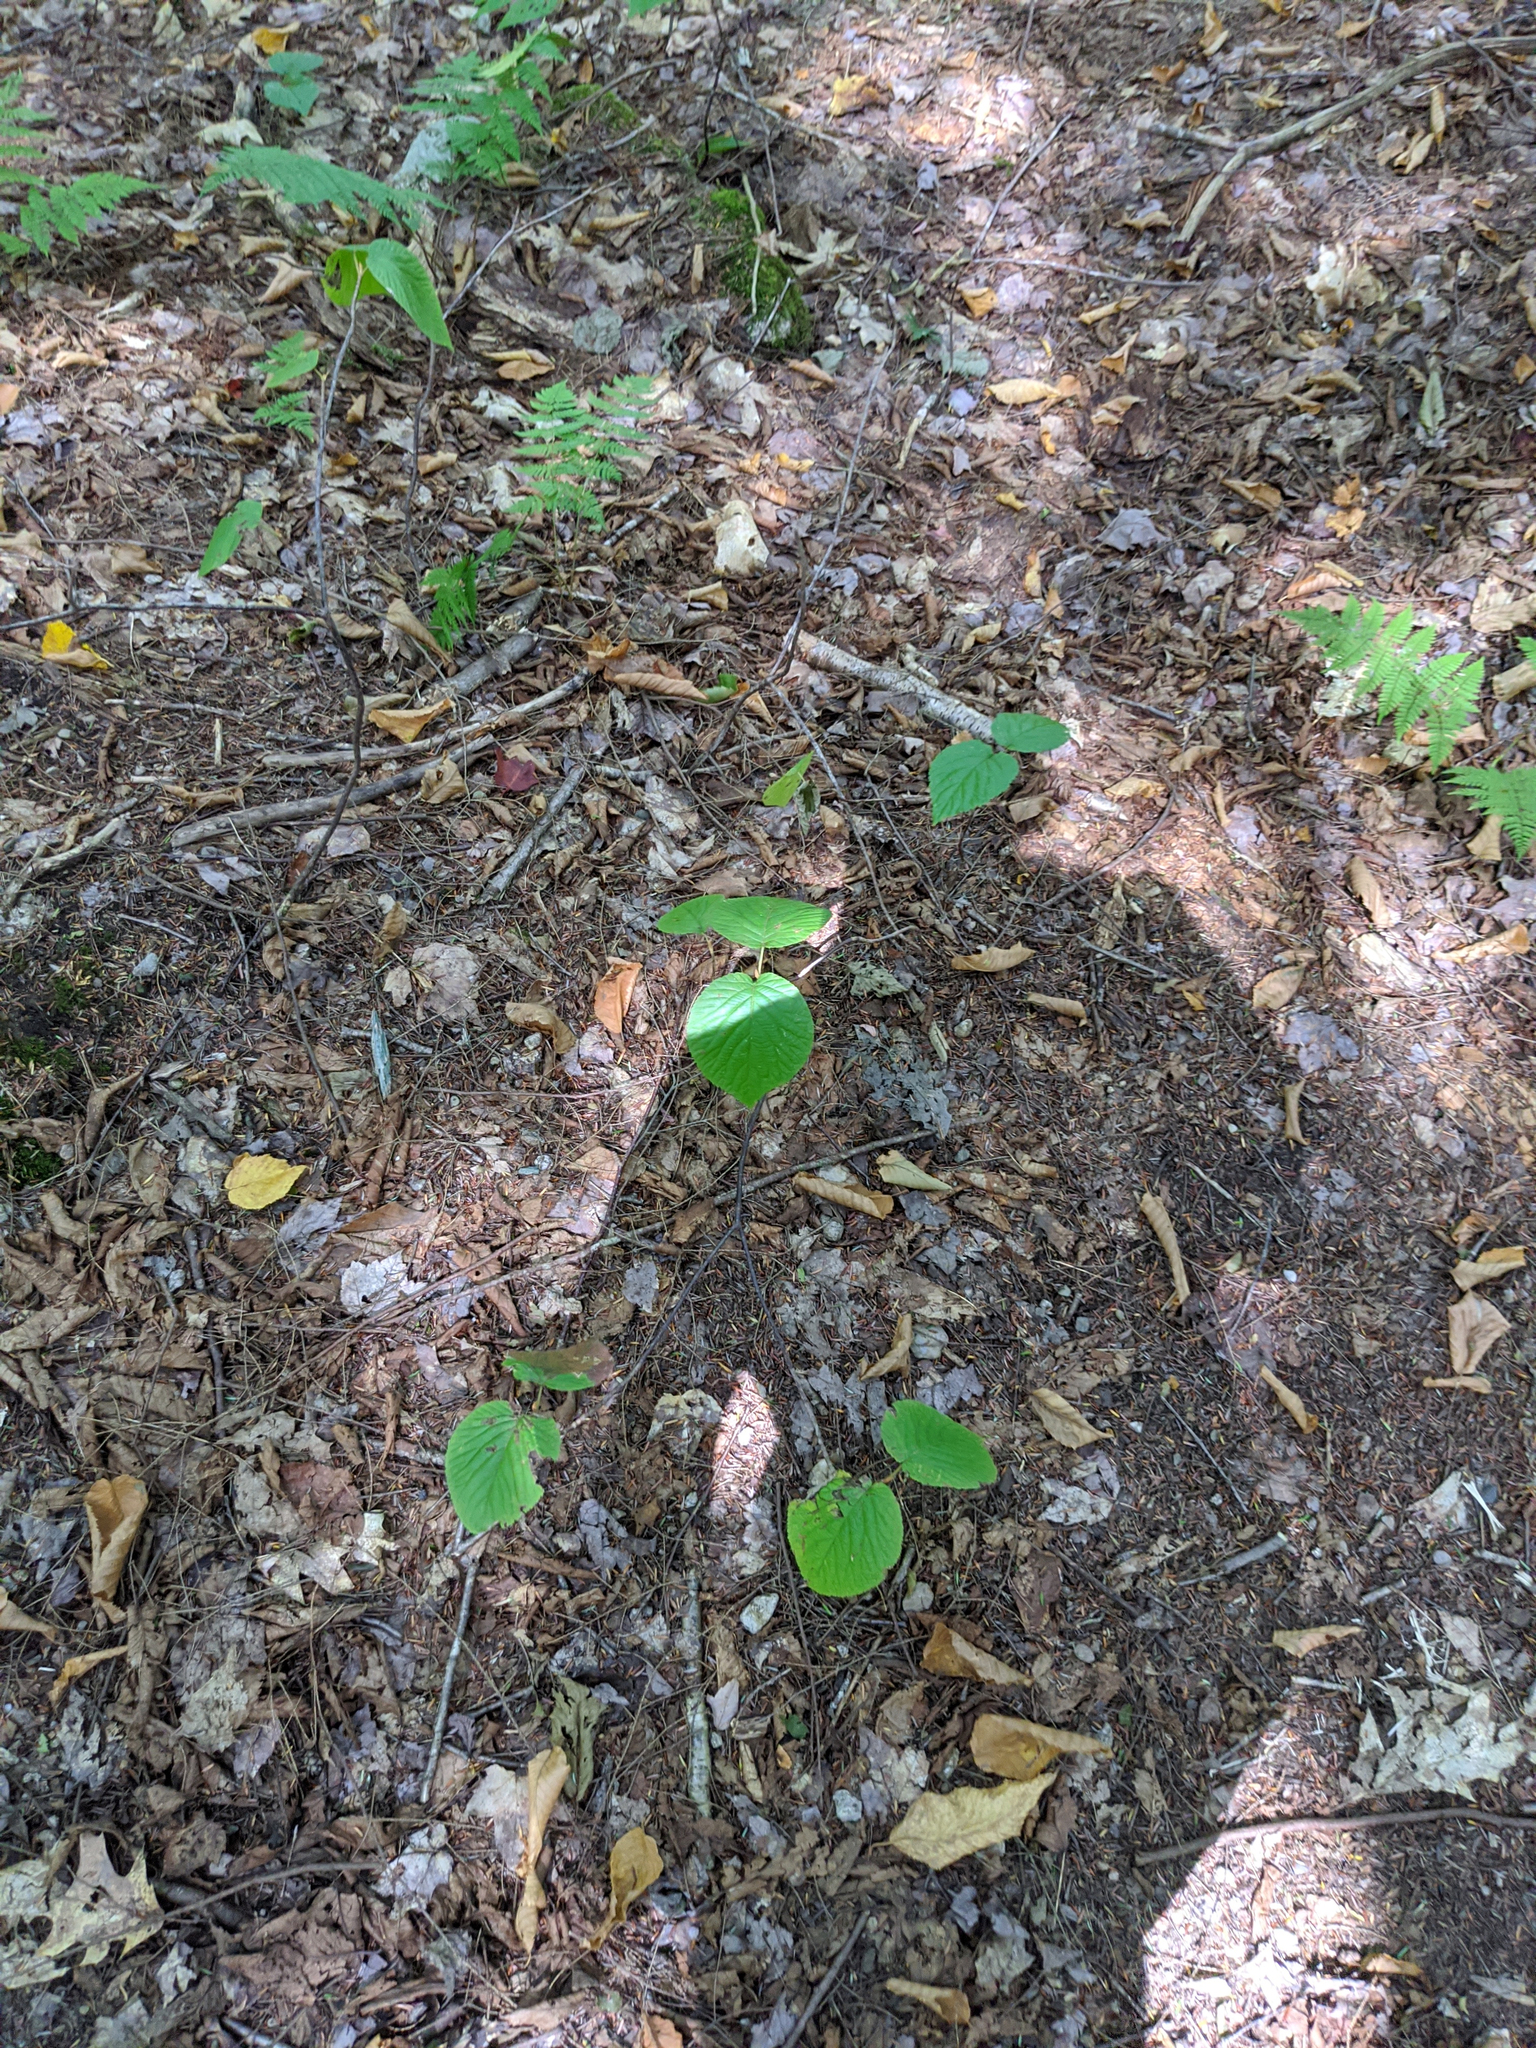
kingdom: Plantae
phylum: Tracheophyta
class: Magnoliopsida
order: Dipsacales
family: Viburnaceae
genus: Viburnum
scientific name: Viburnum lantanoides
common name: Hobblebush
